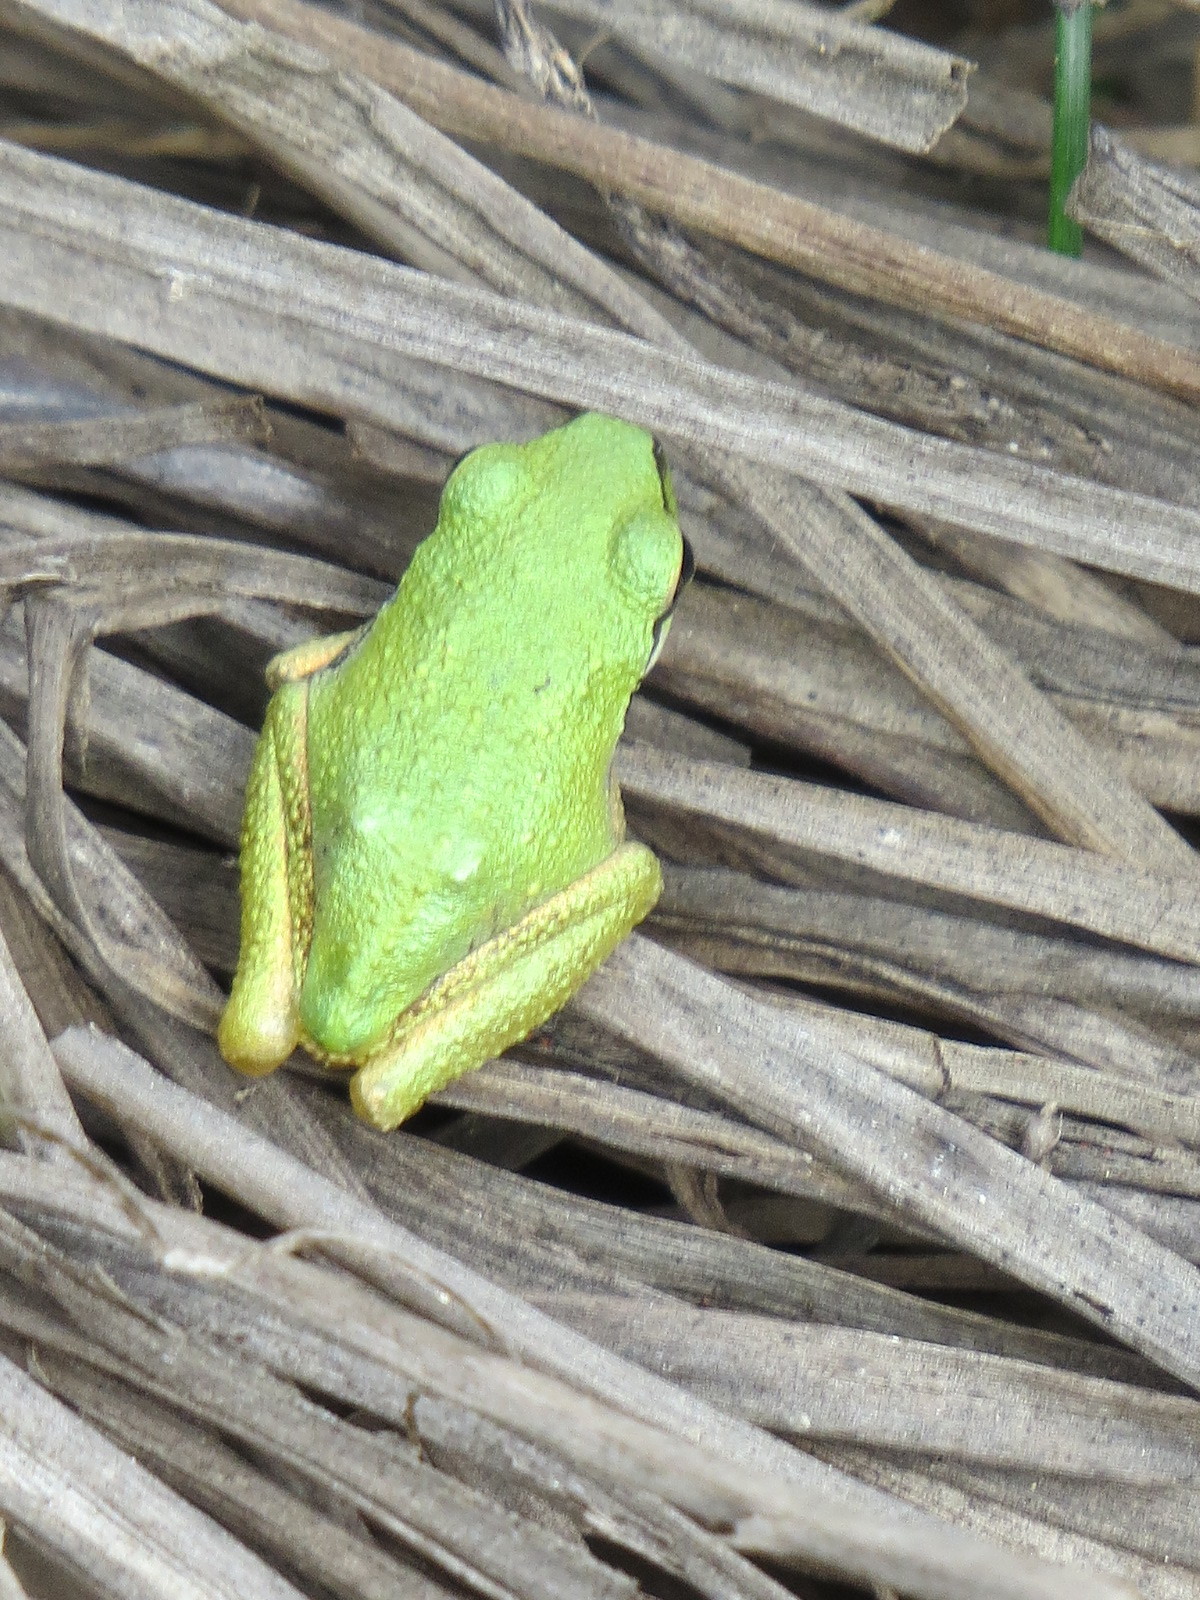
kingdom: Animalia
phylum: Chordata
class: Amphibia
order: Anura
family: Hylidae
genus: Pseudacris
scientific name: Pseudacris regilla
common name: Pacific chorus frog
